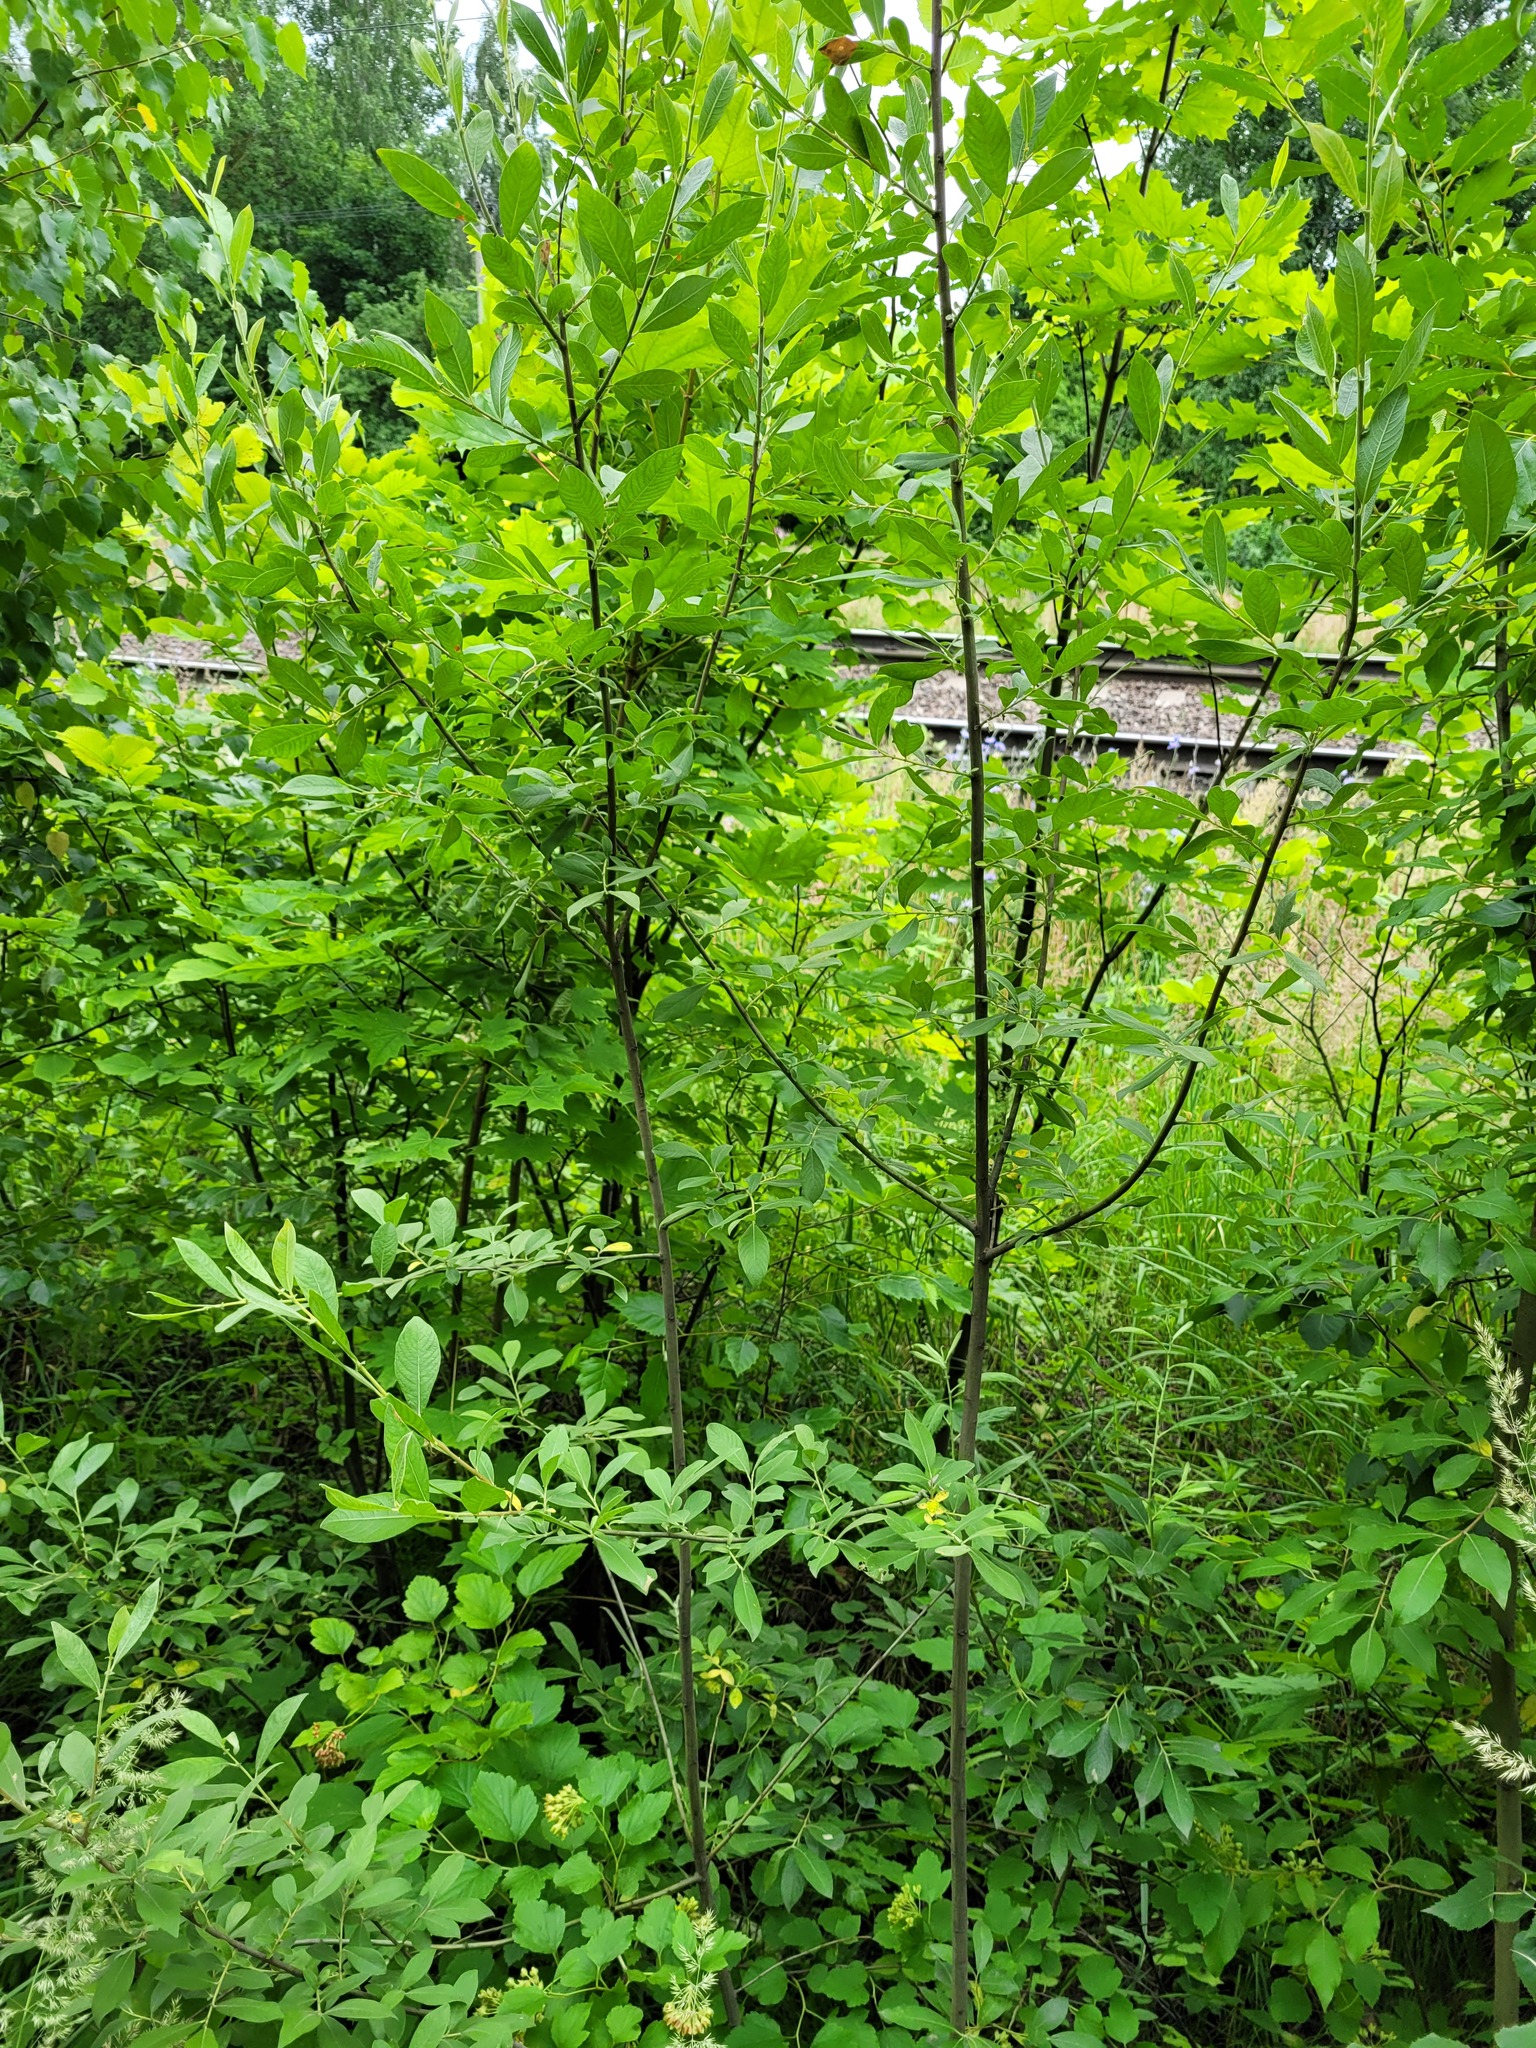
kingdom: Plantae
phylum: Tracheophyta
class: Magnoliopsida
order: Malpighiales
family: Salicaceae
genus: Salix
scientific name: Salix caprea
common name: Goat willow
